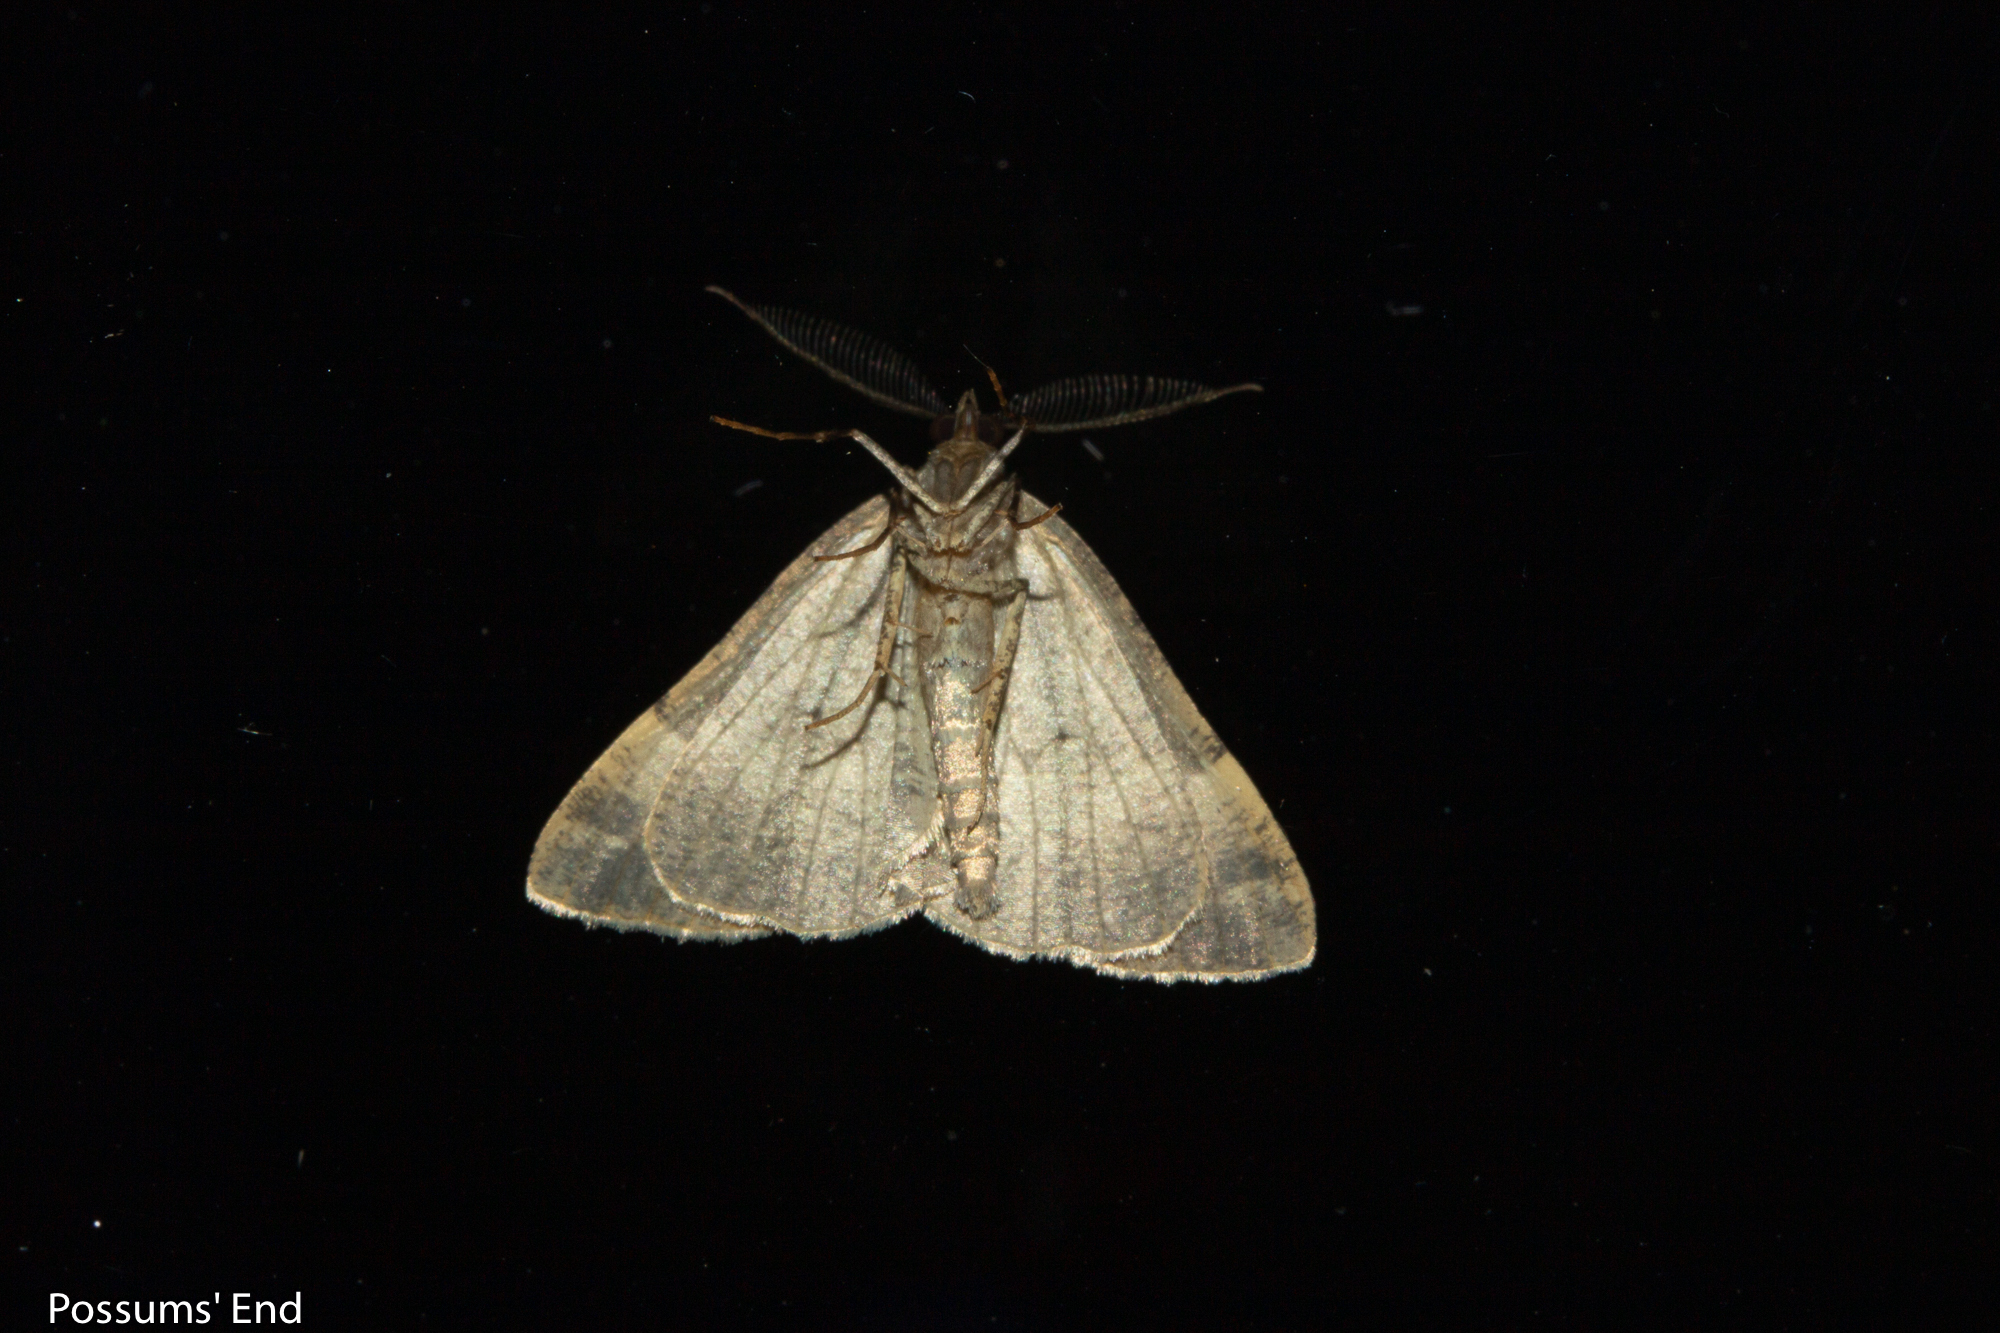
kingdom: Animalia
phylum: Arthropoda
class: Insecta
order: Lepidoptera
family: Geometridae
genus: Pseudocoremia
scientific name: Pseudocoremia
